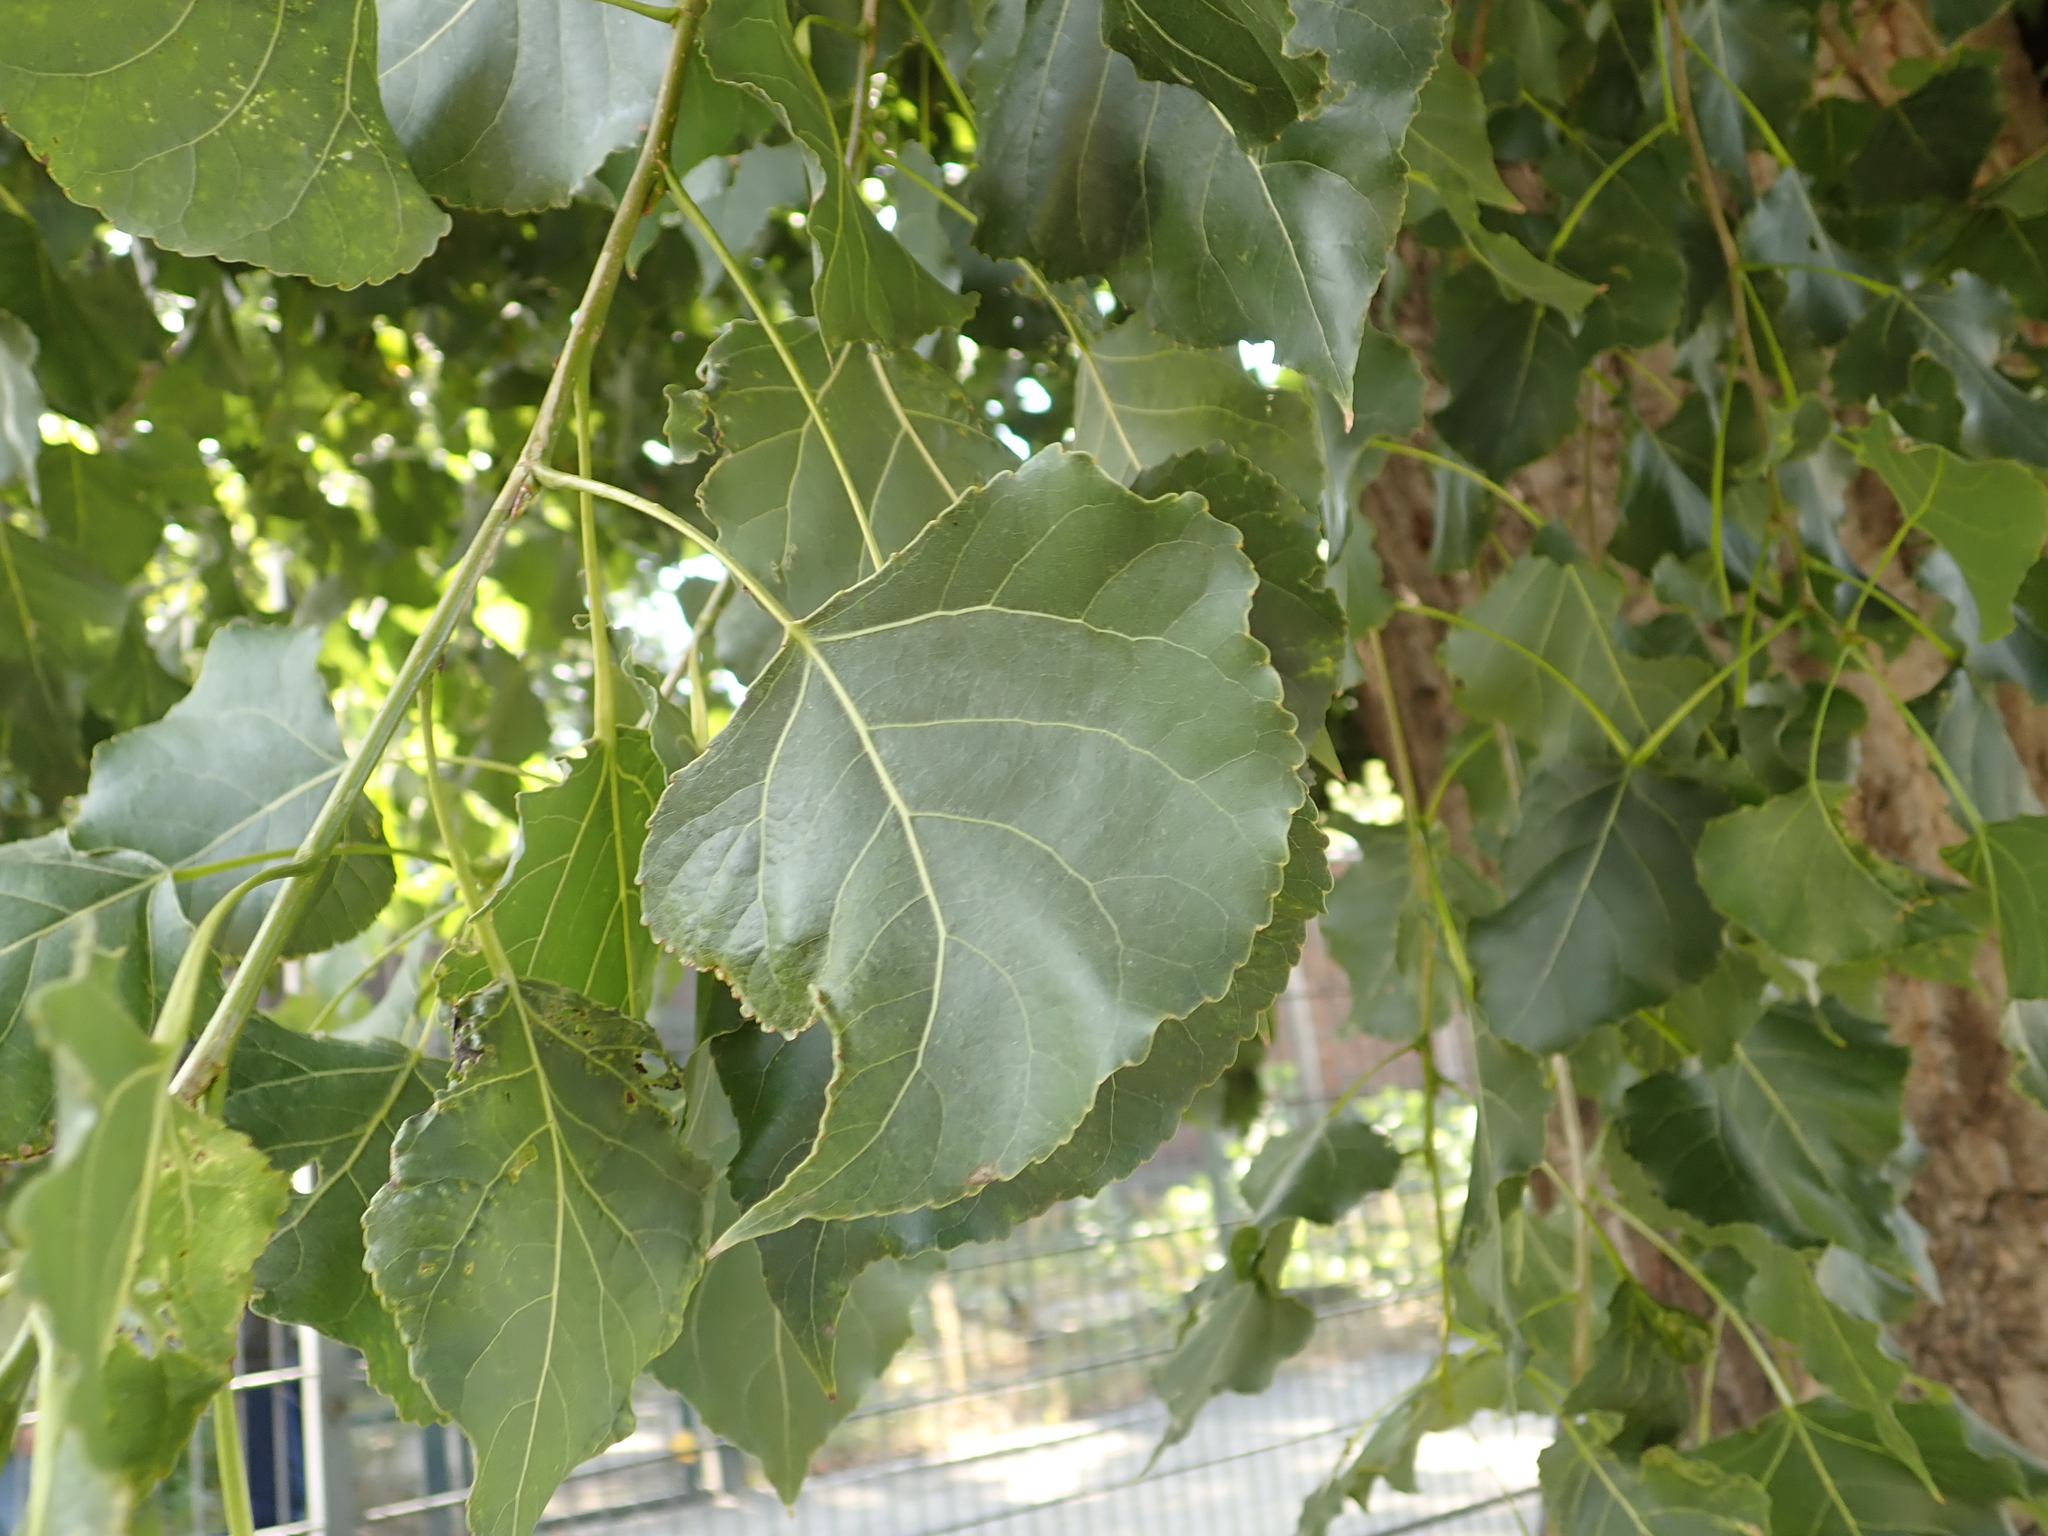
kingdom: Plantae
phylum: Tracheophyta
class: Magnoliopsida
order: Malpighiales
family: Salicaceae
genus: Populus
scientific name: Populus nigra
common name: Black poplar
